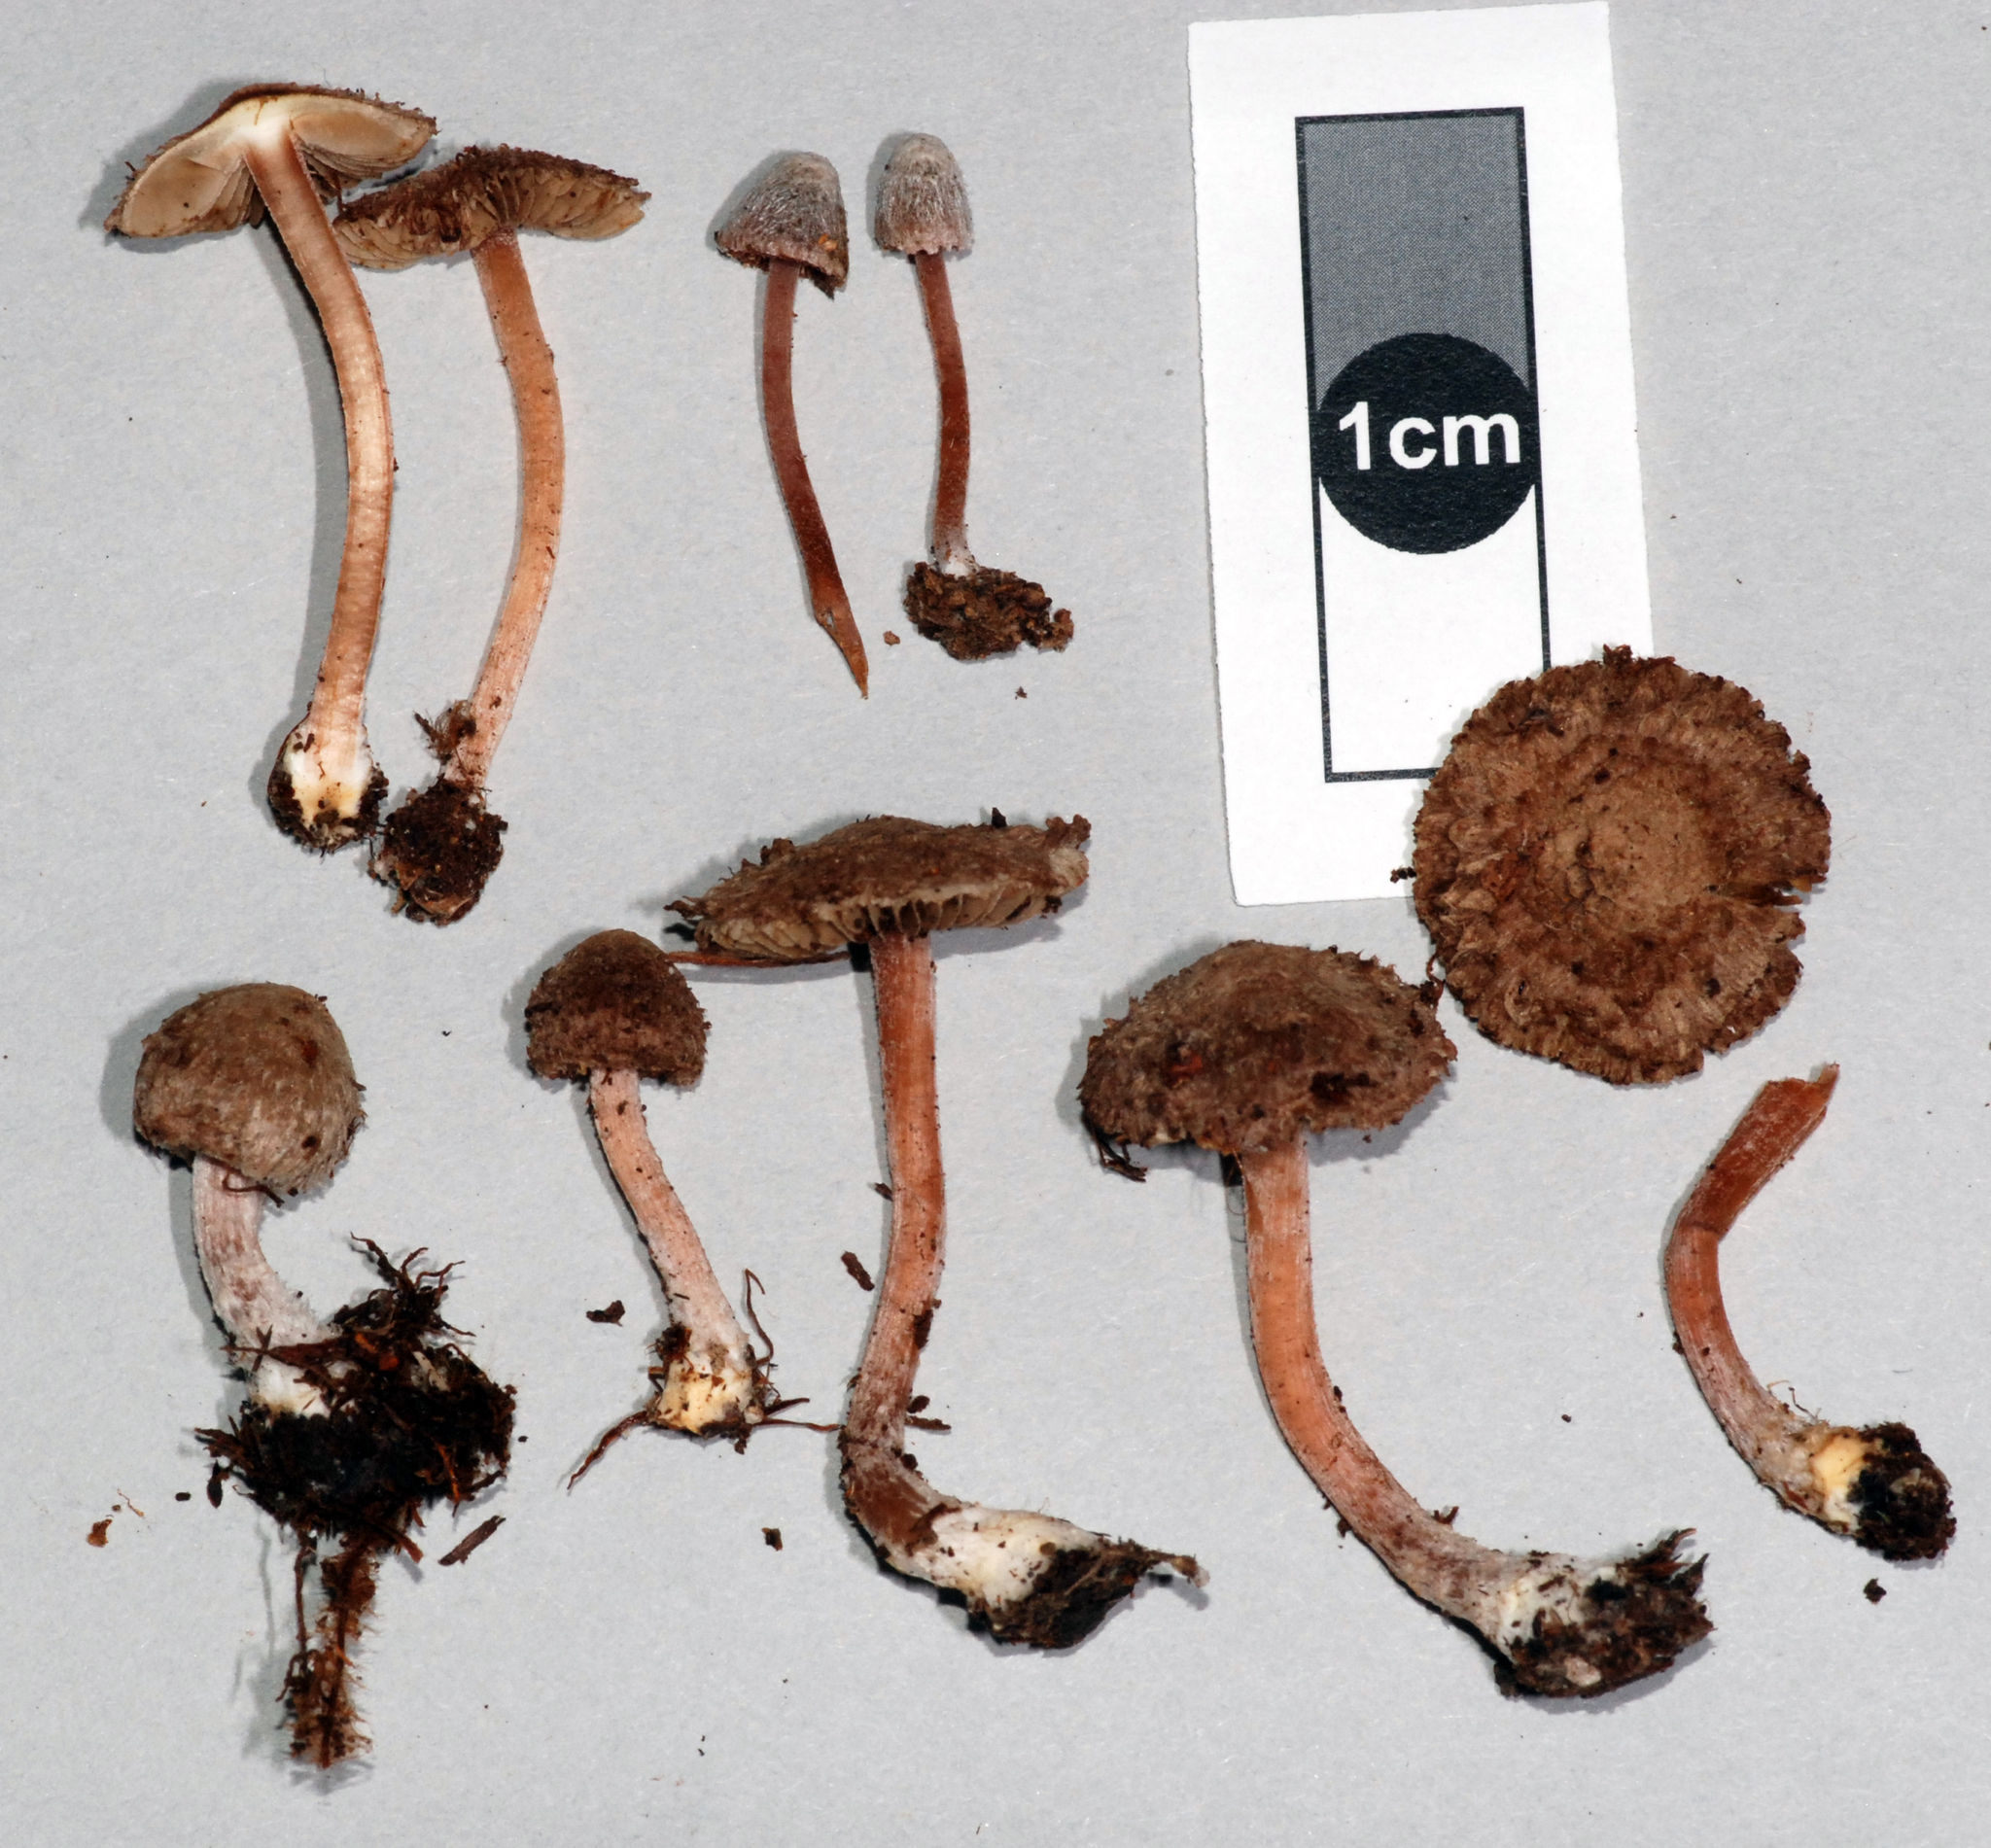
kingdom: Fungi
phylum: Basidiomycota
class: Agaricomycetes
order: Agaricales
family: Inocybaceae
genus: Inocybe
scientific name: Inocybe albovestita
